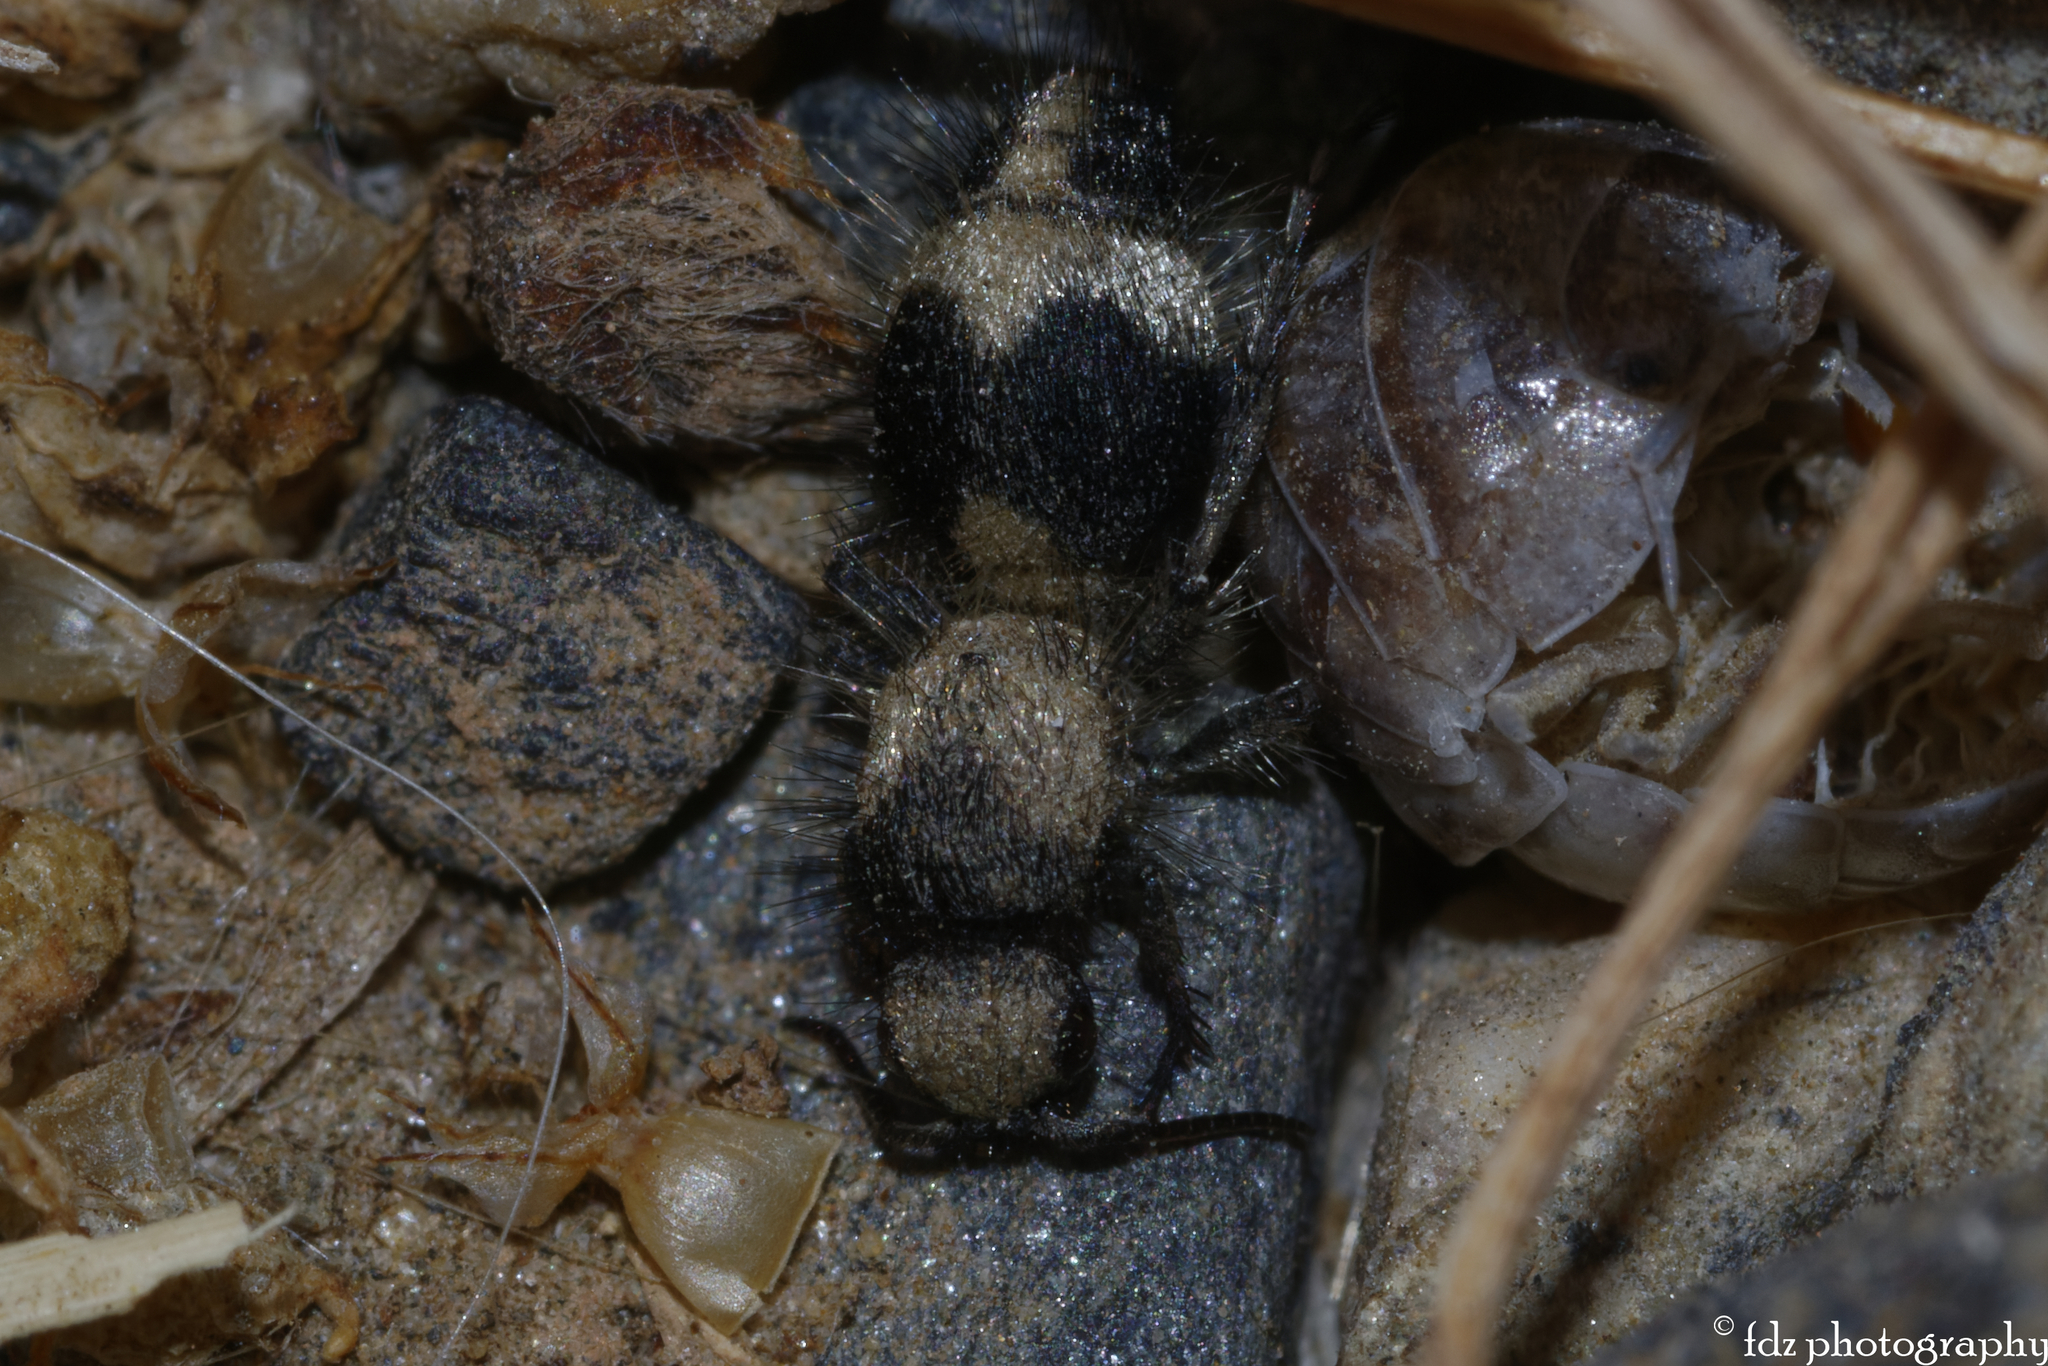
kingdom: Animalia
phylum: Arthropoda
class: Insecta
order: Hymenoptera
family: Mutillidae
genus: Dasylabris
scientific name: Dasylabris lugubris
